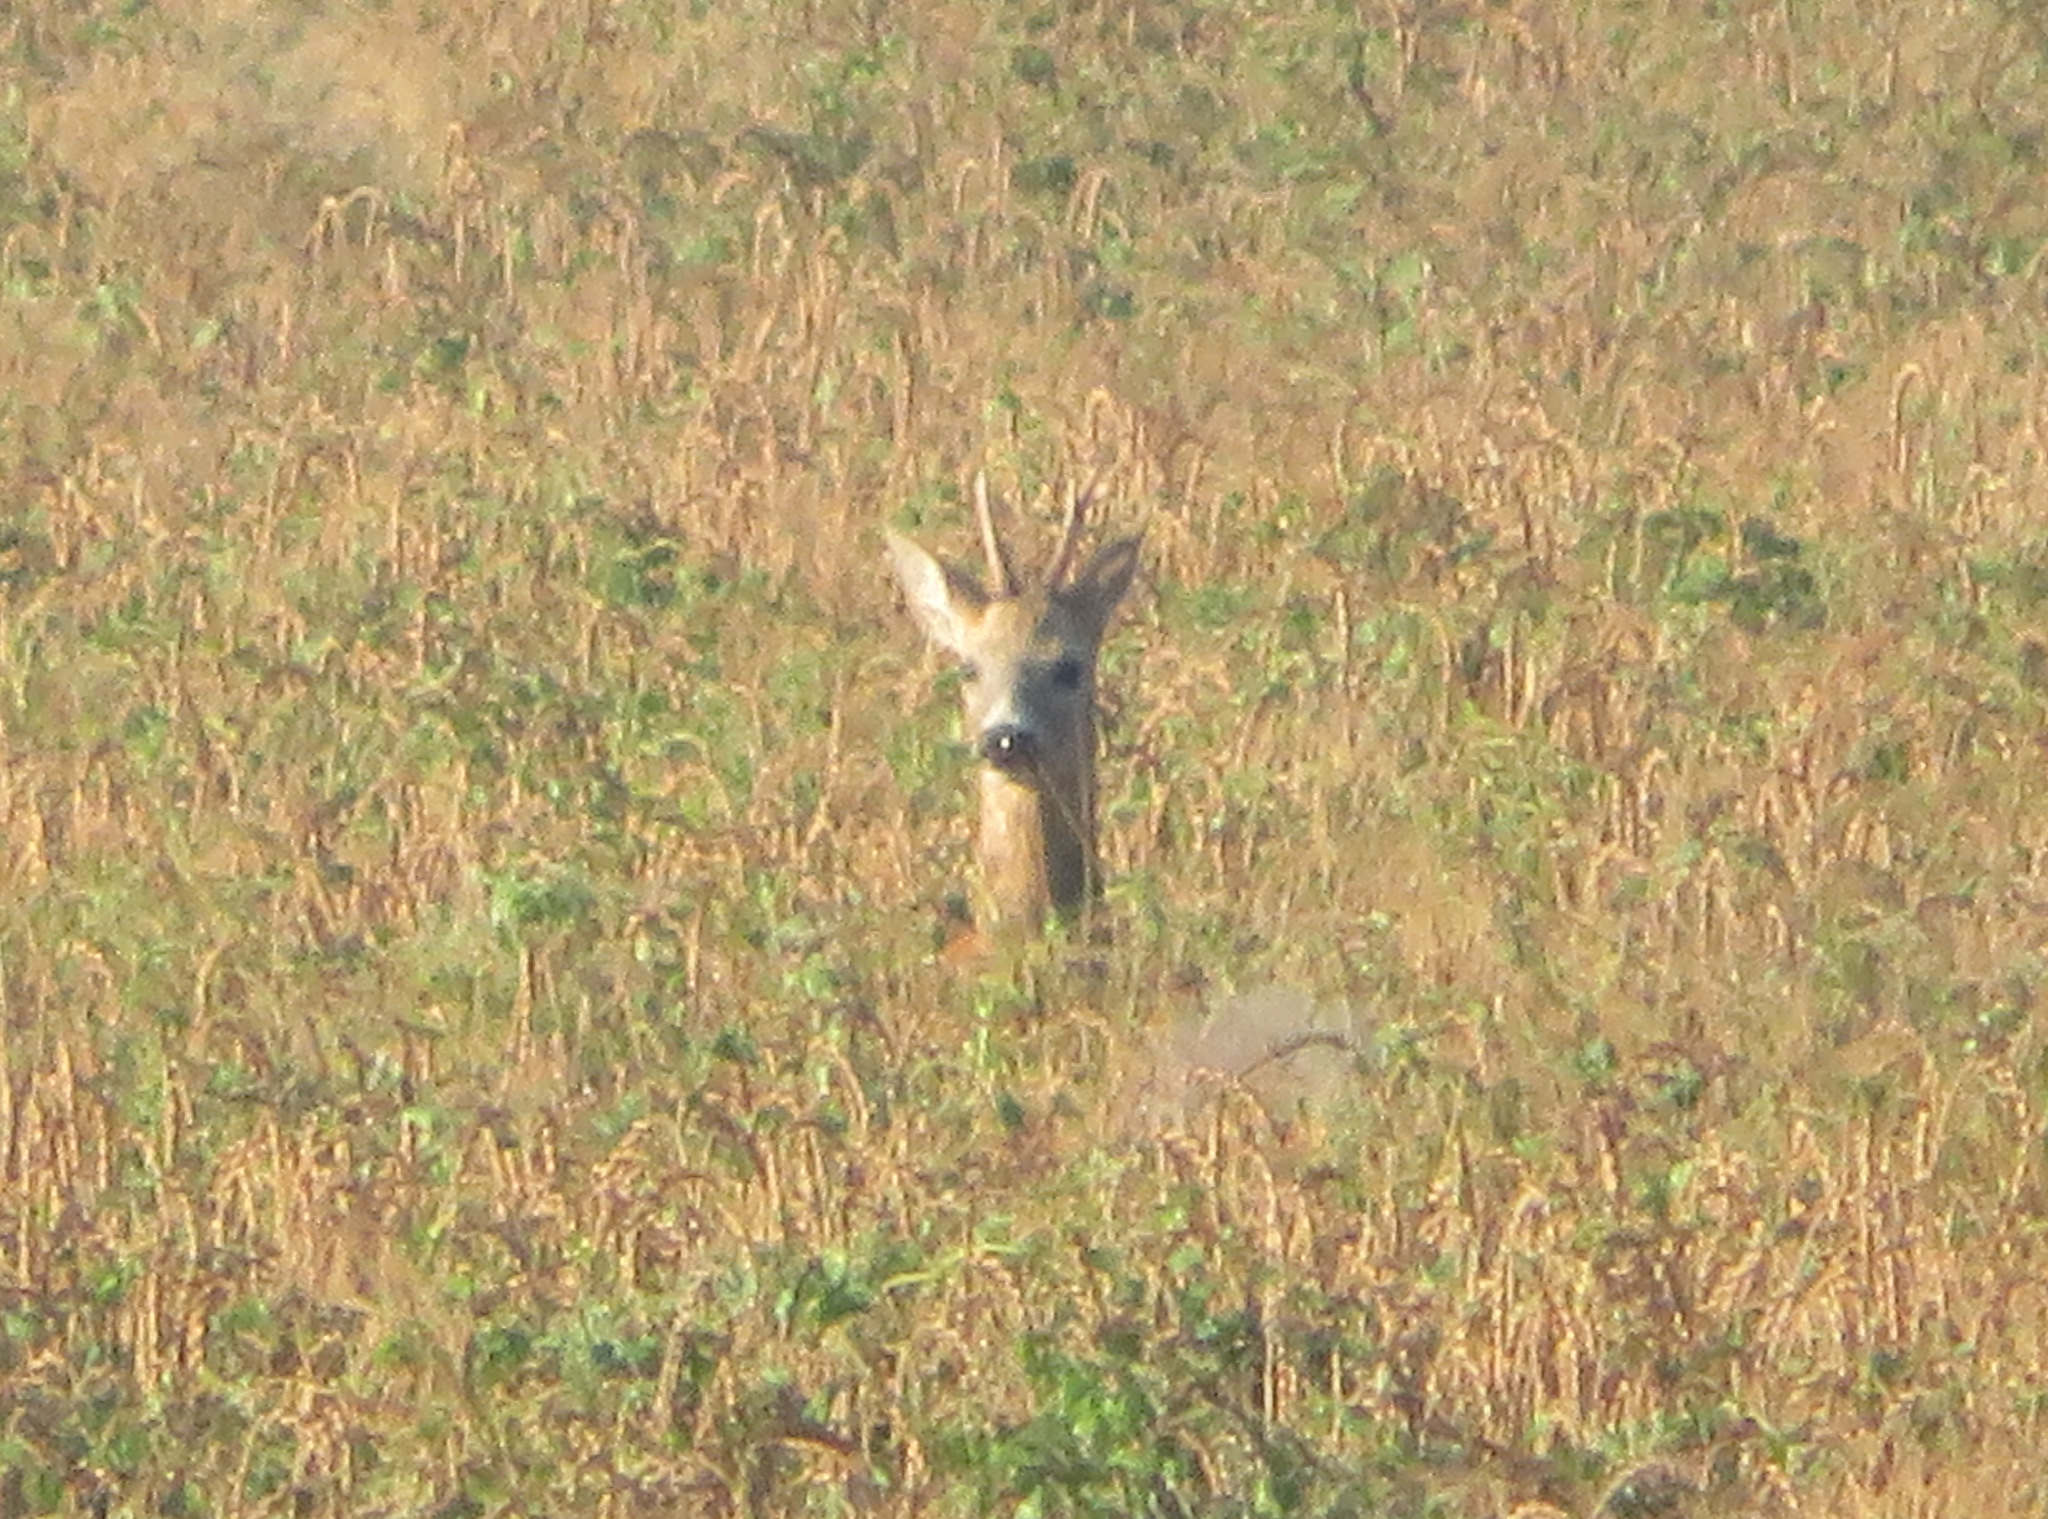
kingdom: Animalia
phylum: Chordata
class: Mammalia
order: Artiodactyla
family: Cervidae
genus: Capreolus
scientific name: Capreolus capreolus
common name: Western roe deer
